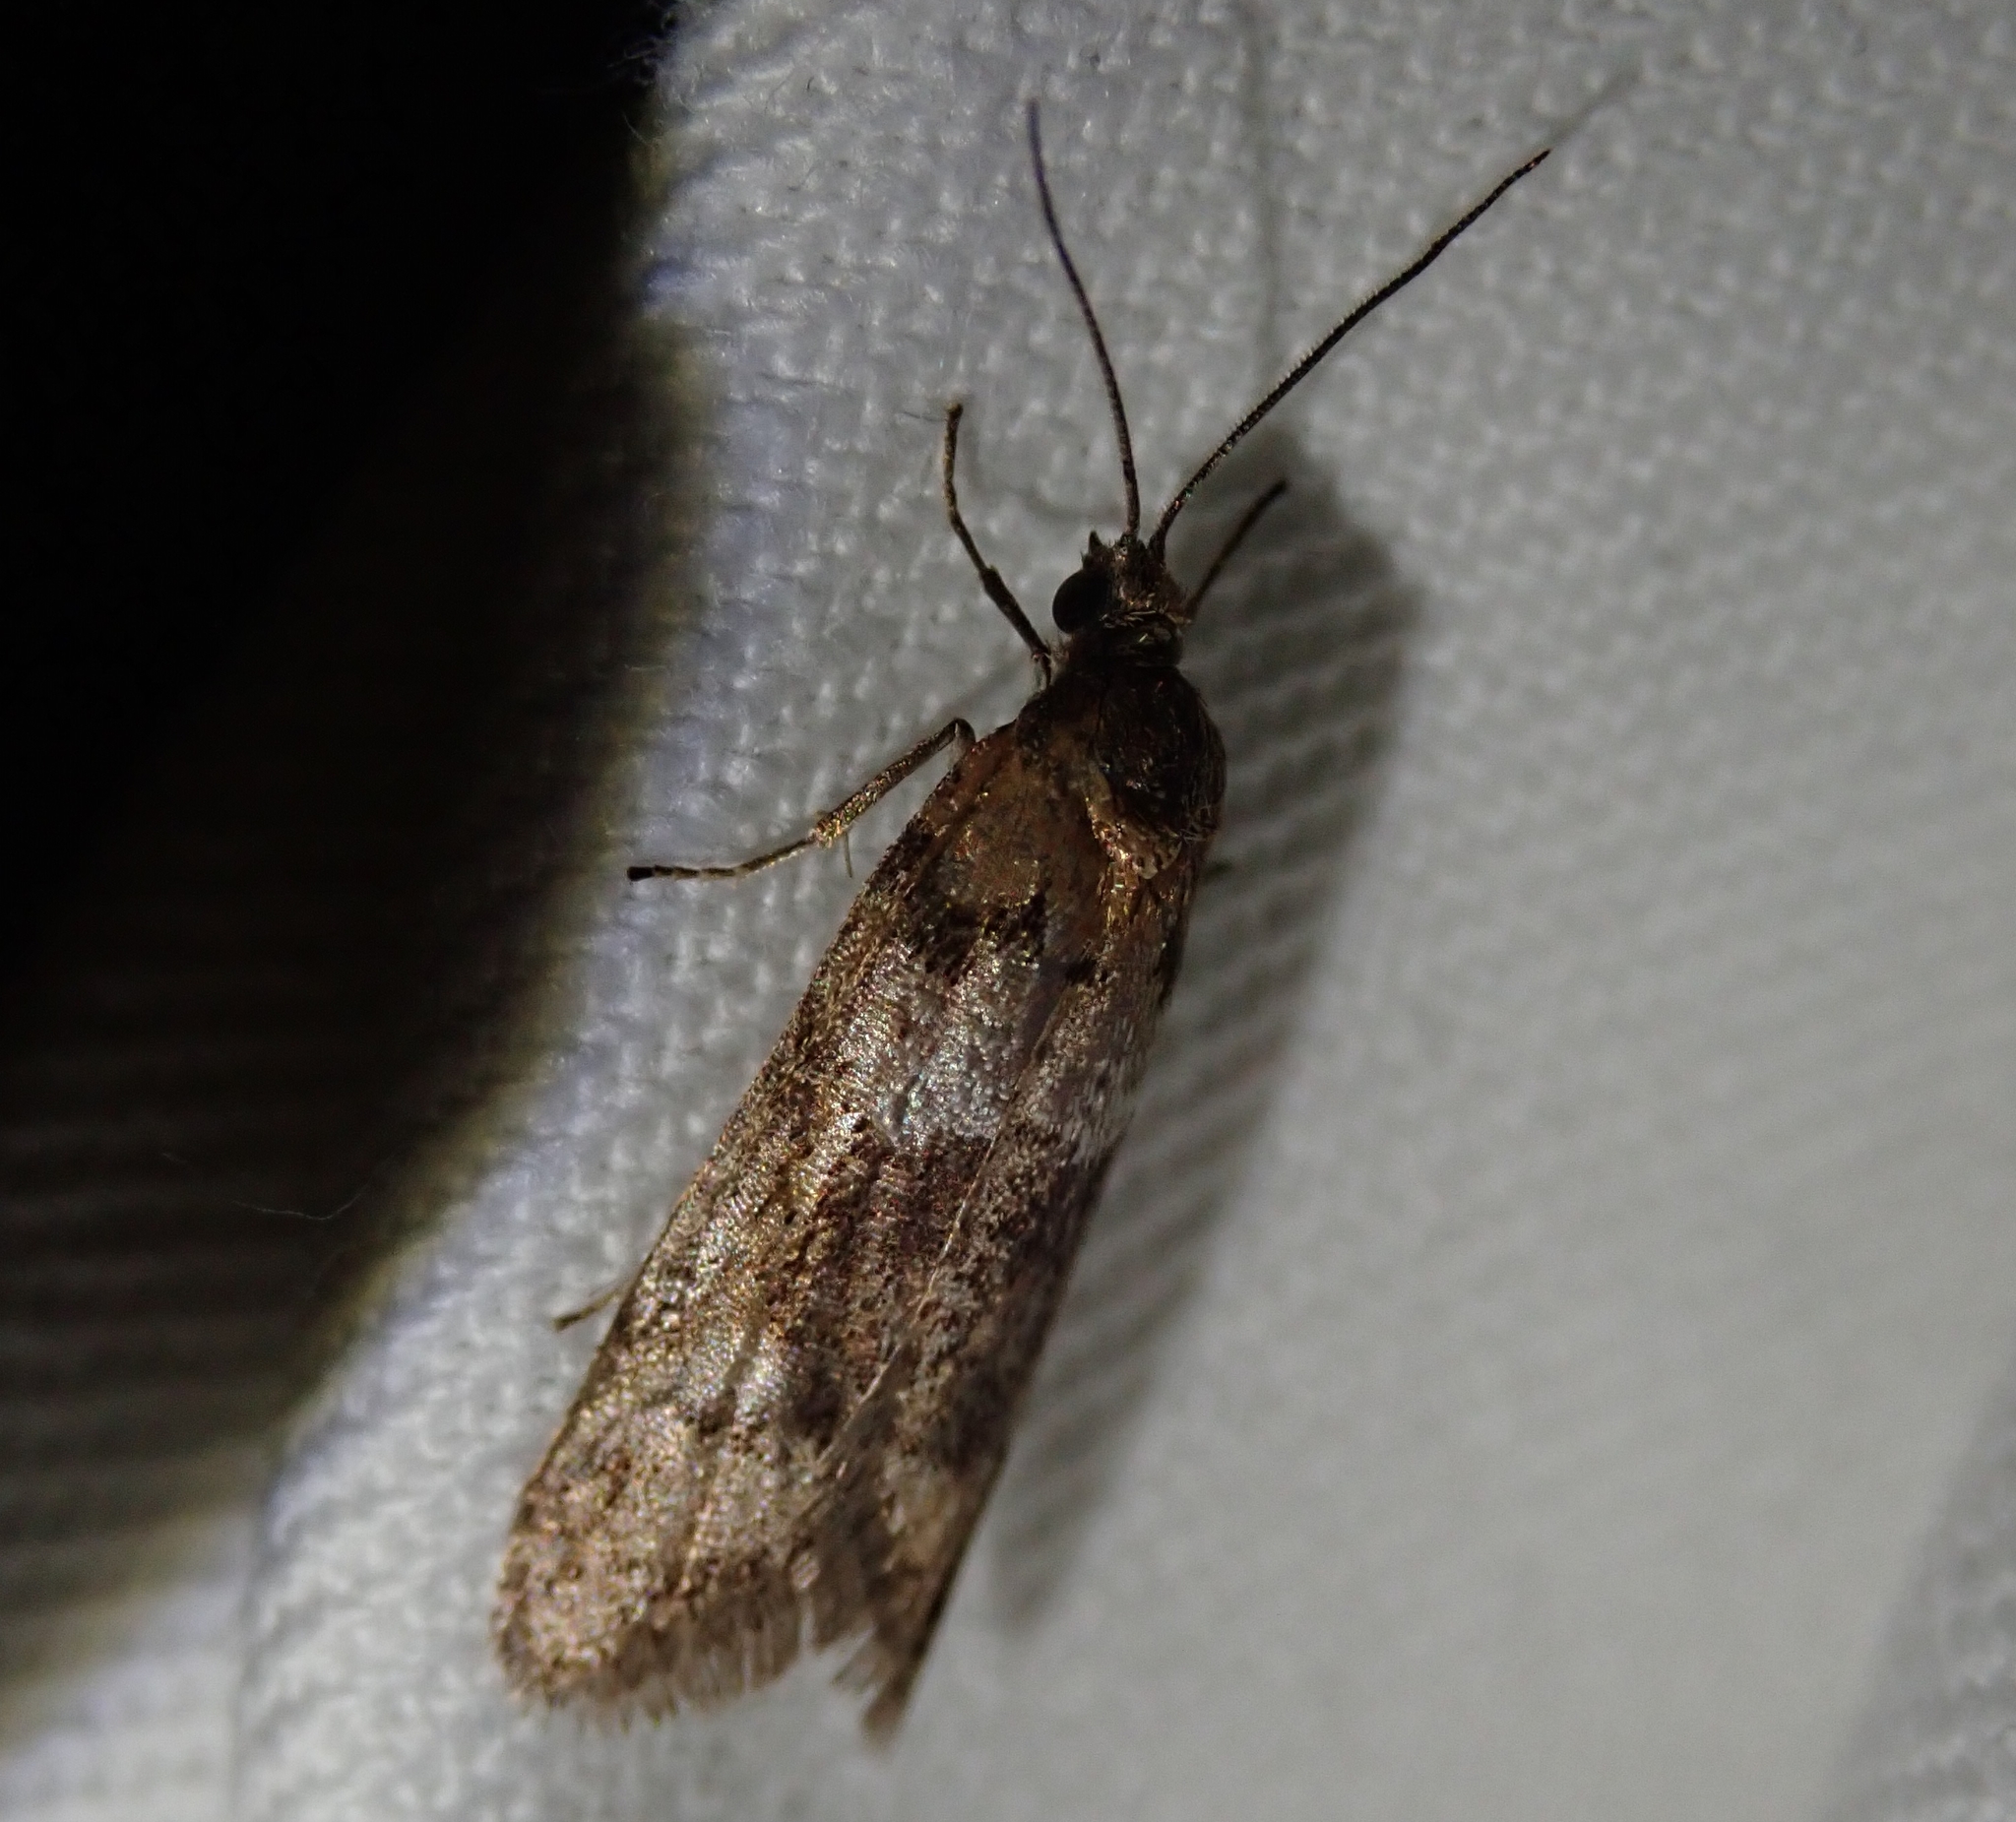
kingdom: Animalia
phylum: Arthropoda
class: Insecta
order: Lepidoptera
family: Tortricidae
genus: Tortricodes
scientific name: Tortricodes alternella
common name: Winter shade
